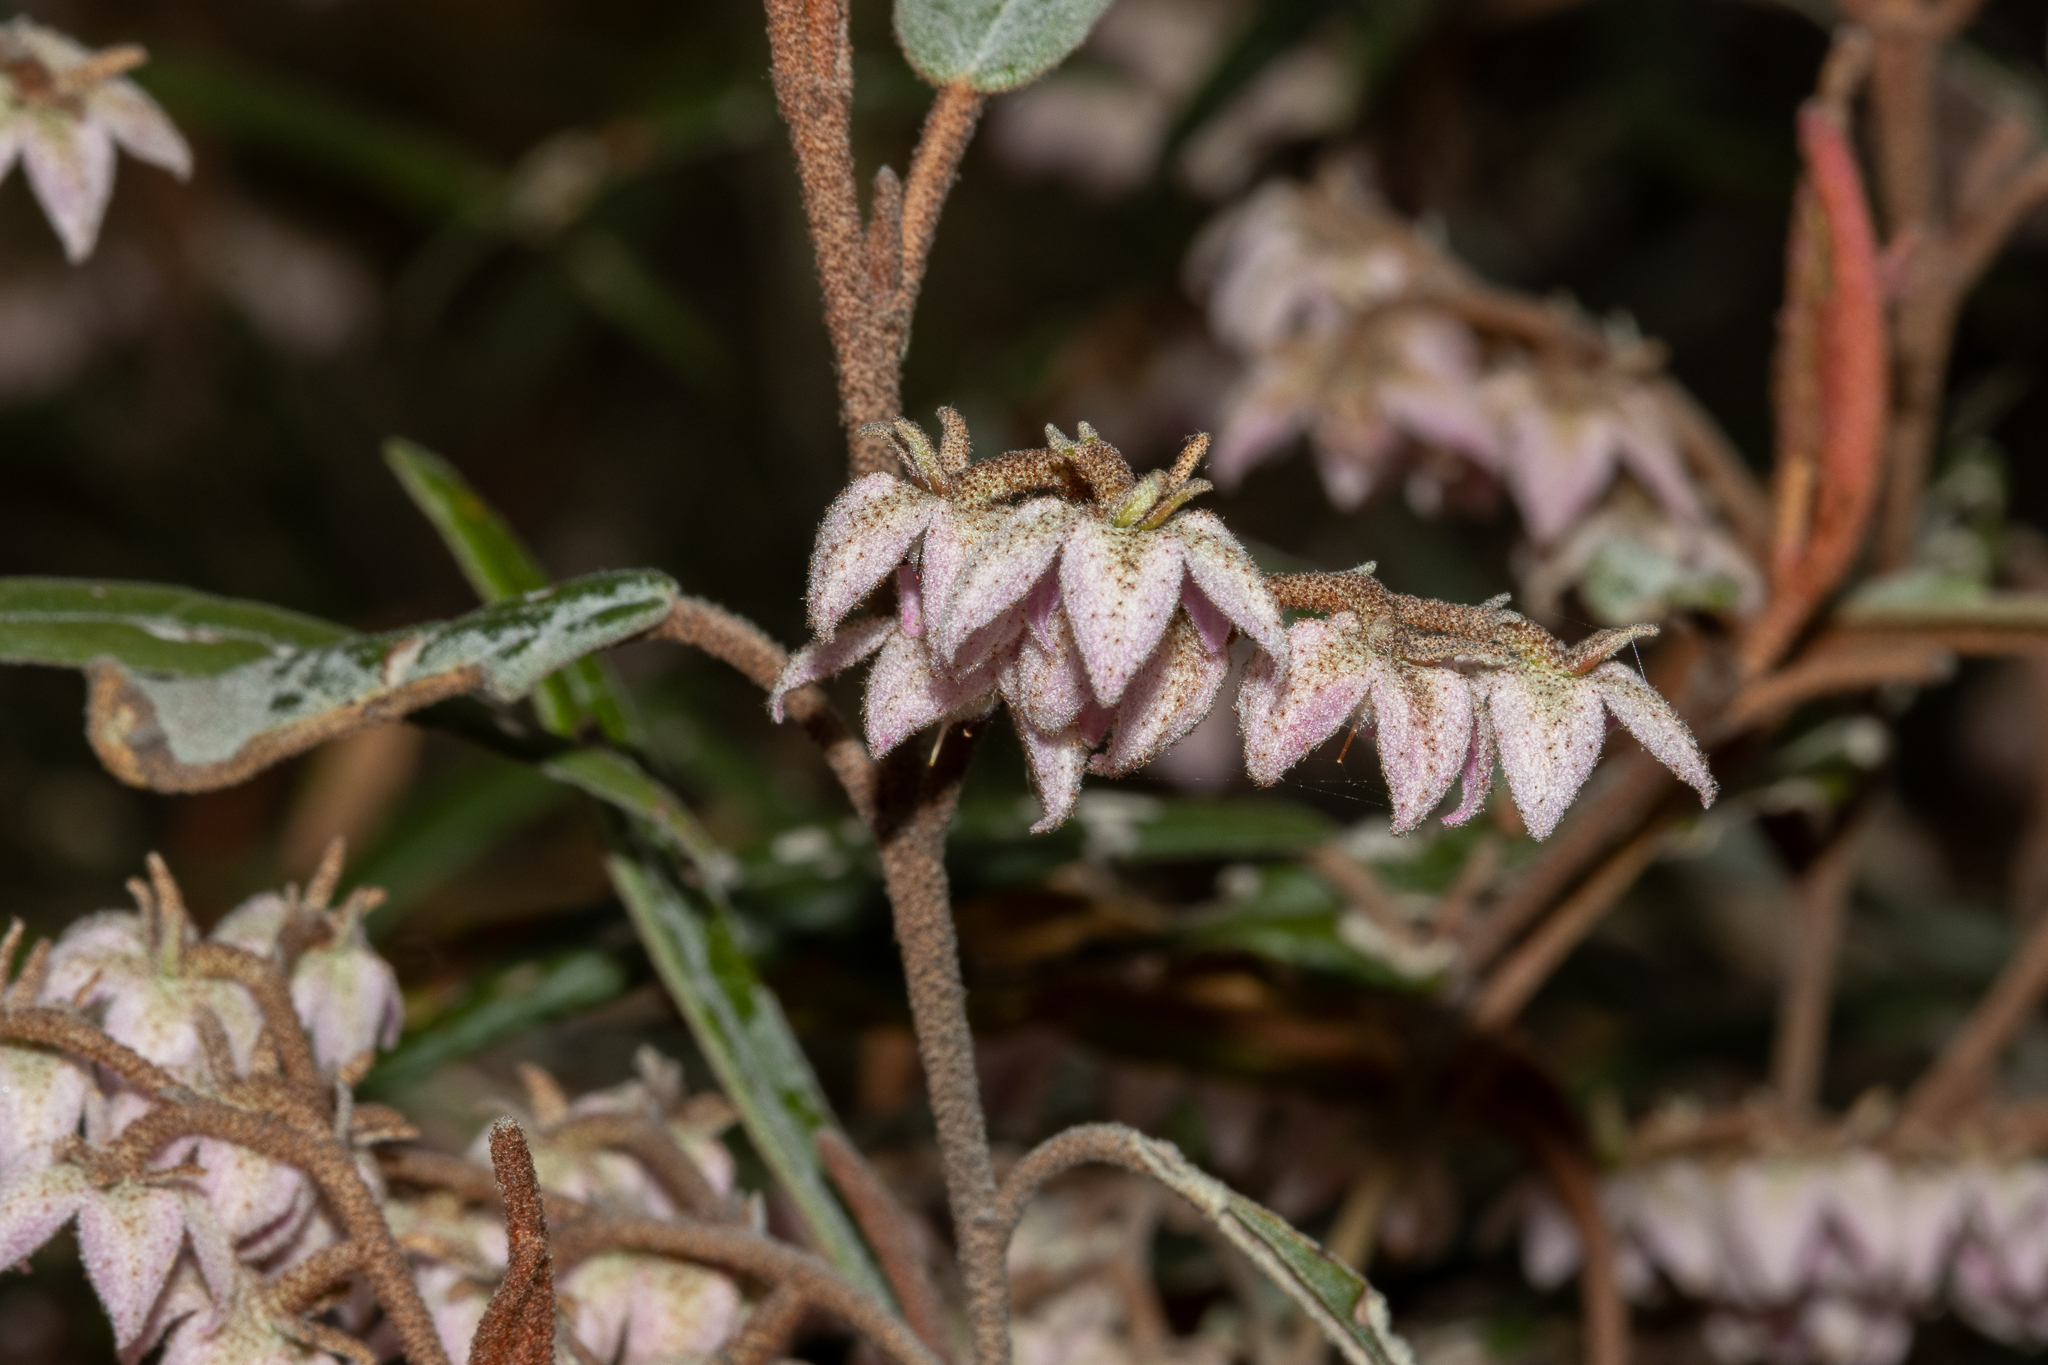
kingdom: Plantae
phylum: Tracheophyta
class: Magnoliopsida
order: Malvales
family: Malvaceae
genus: Lasiopetalum
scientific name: Lasiopetalum behrii
